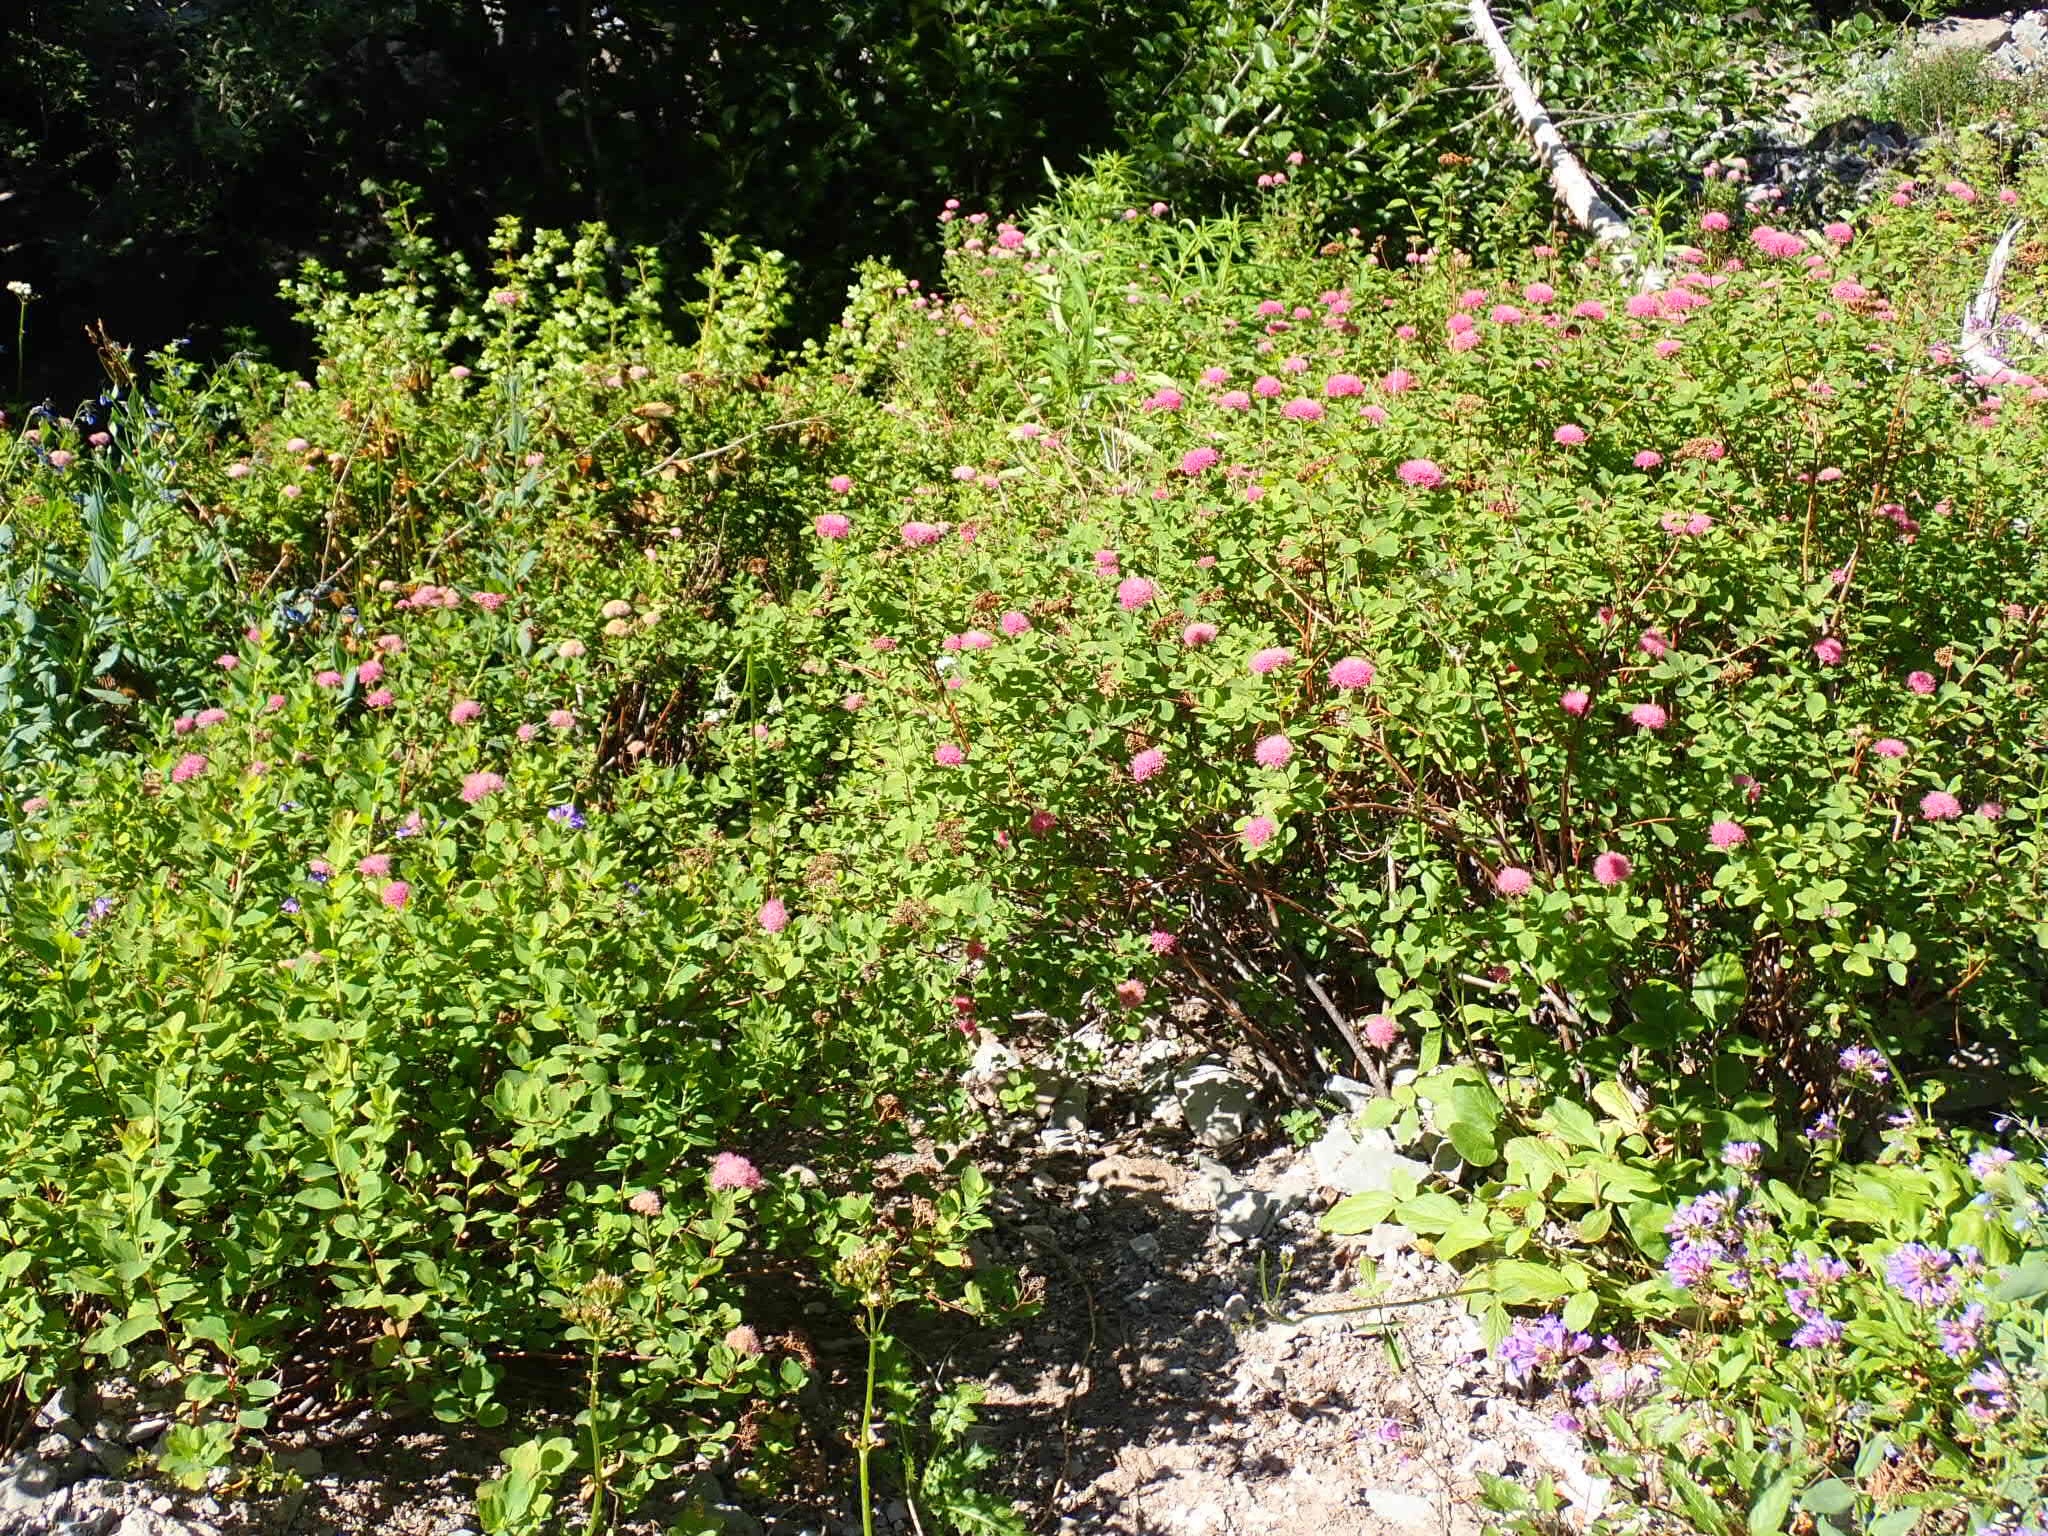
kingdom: Plantae
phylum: Tracheophyta
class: Magnoliopsida
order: Rosales
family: Rosaceae
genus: Spiraea
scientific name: Spiraea splendens
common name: Subalpine meadowsweet
